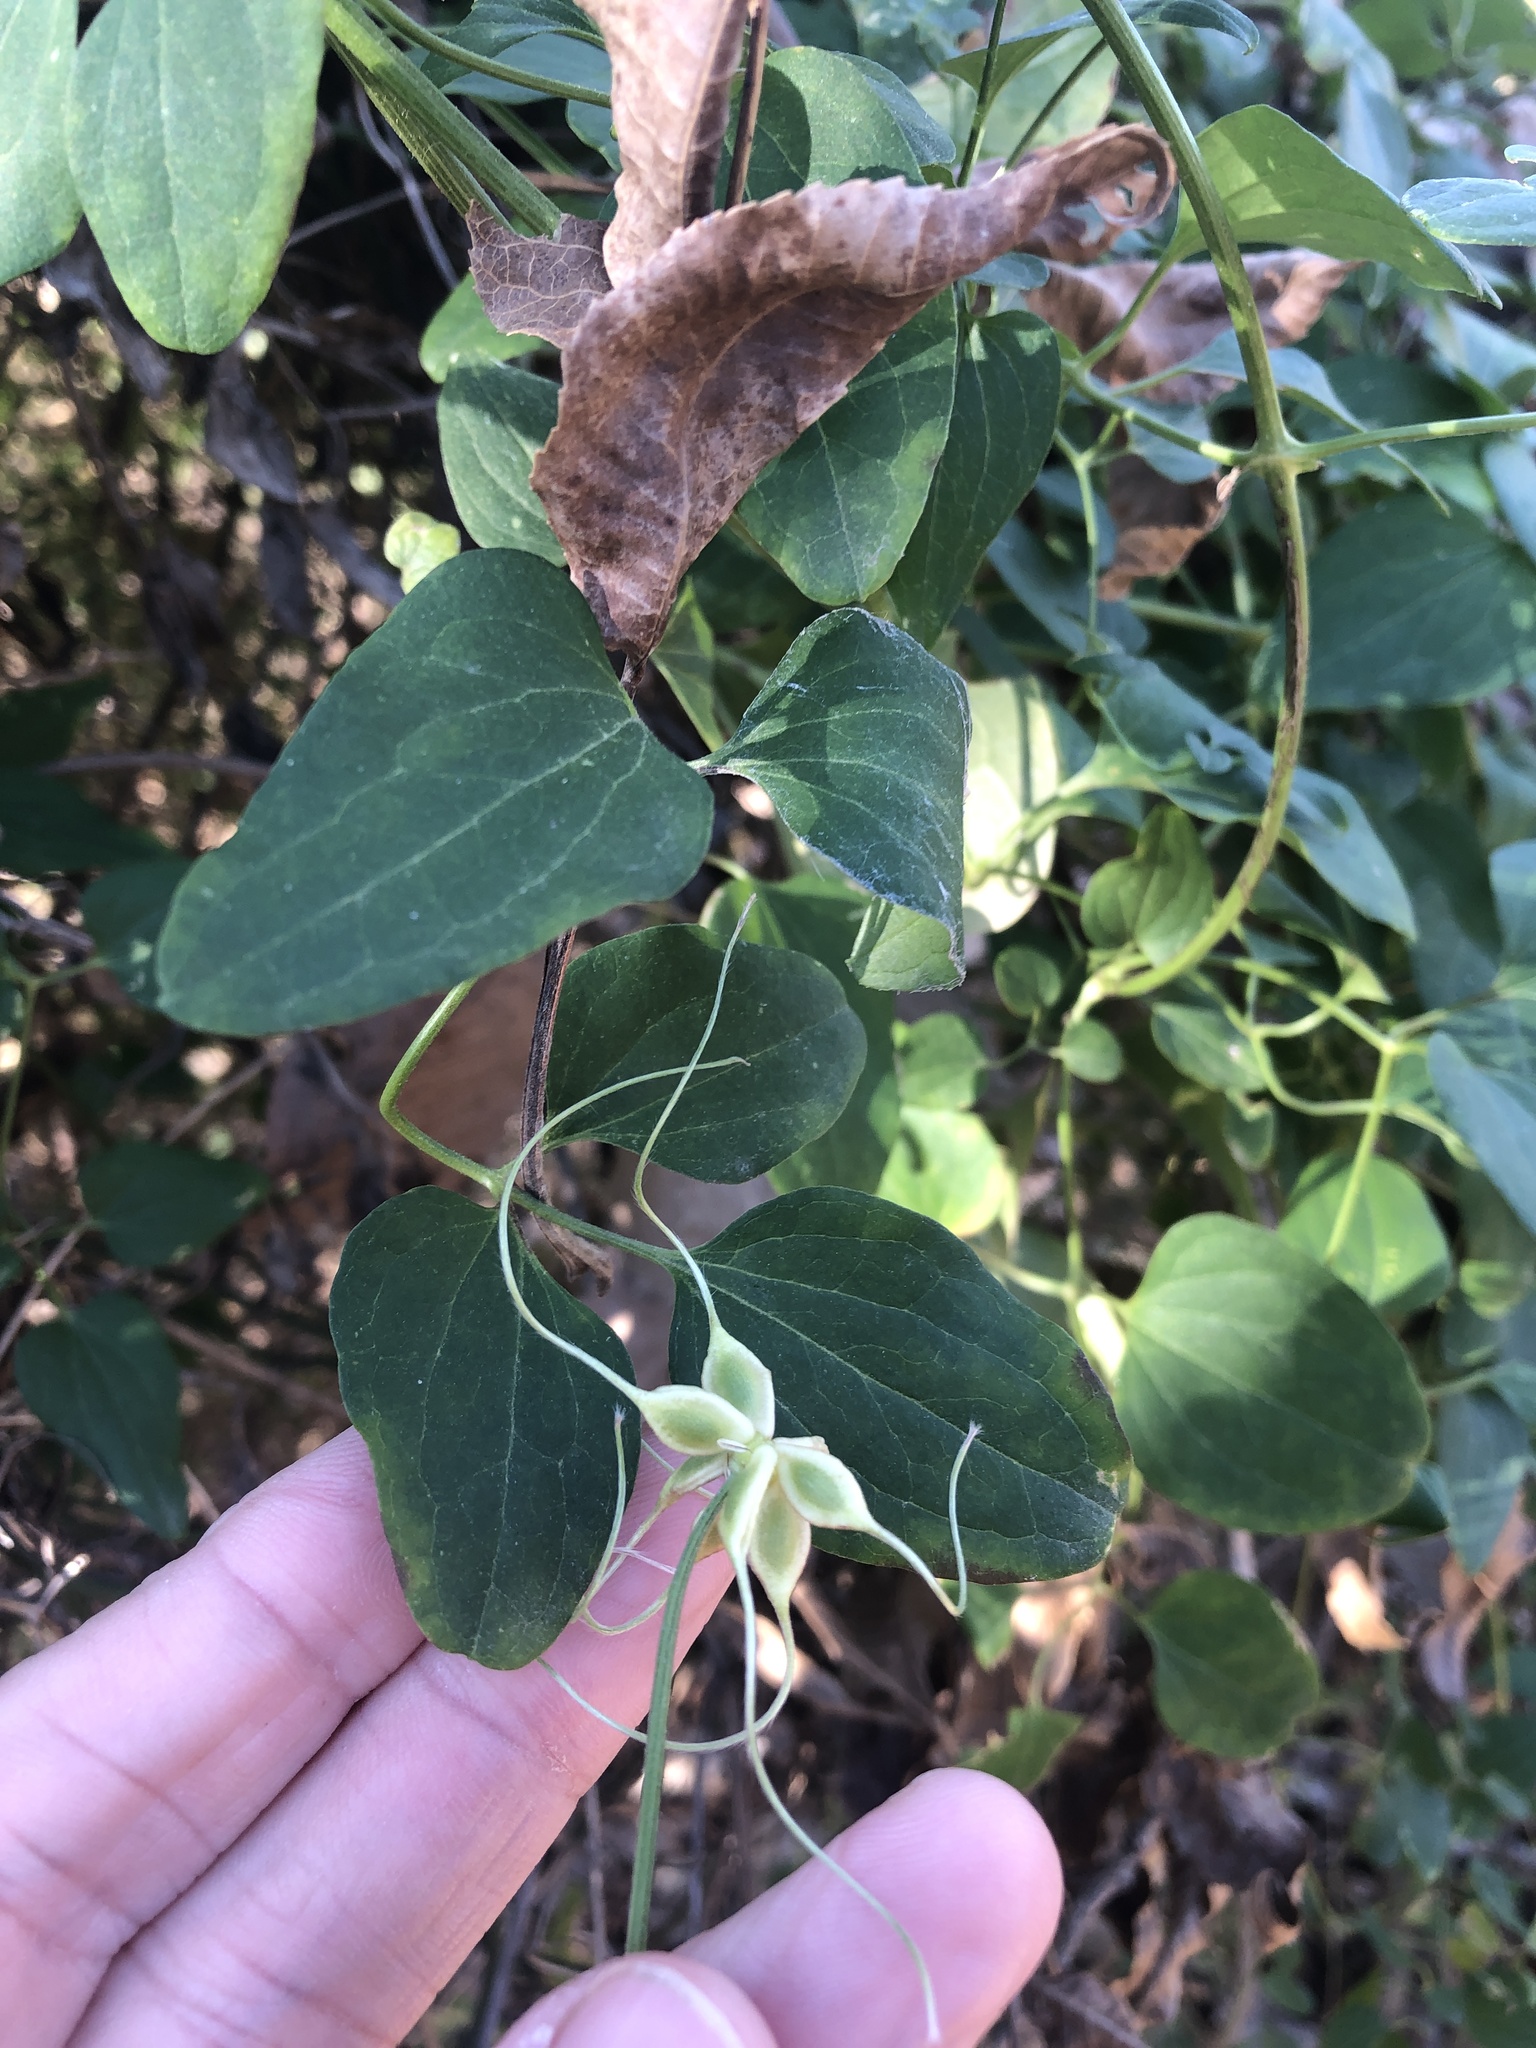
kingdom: Plantae
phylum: Tracheophyta
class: Magnoliopsida
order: Ranunculales
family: Ranunculaceae
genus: Clematis
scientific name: Clematis terniflora
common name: Sweet autumn clematis
